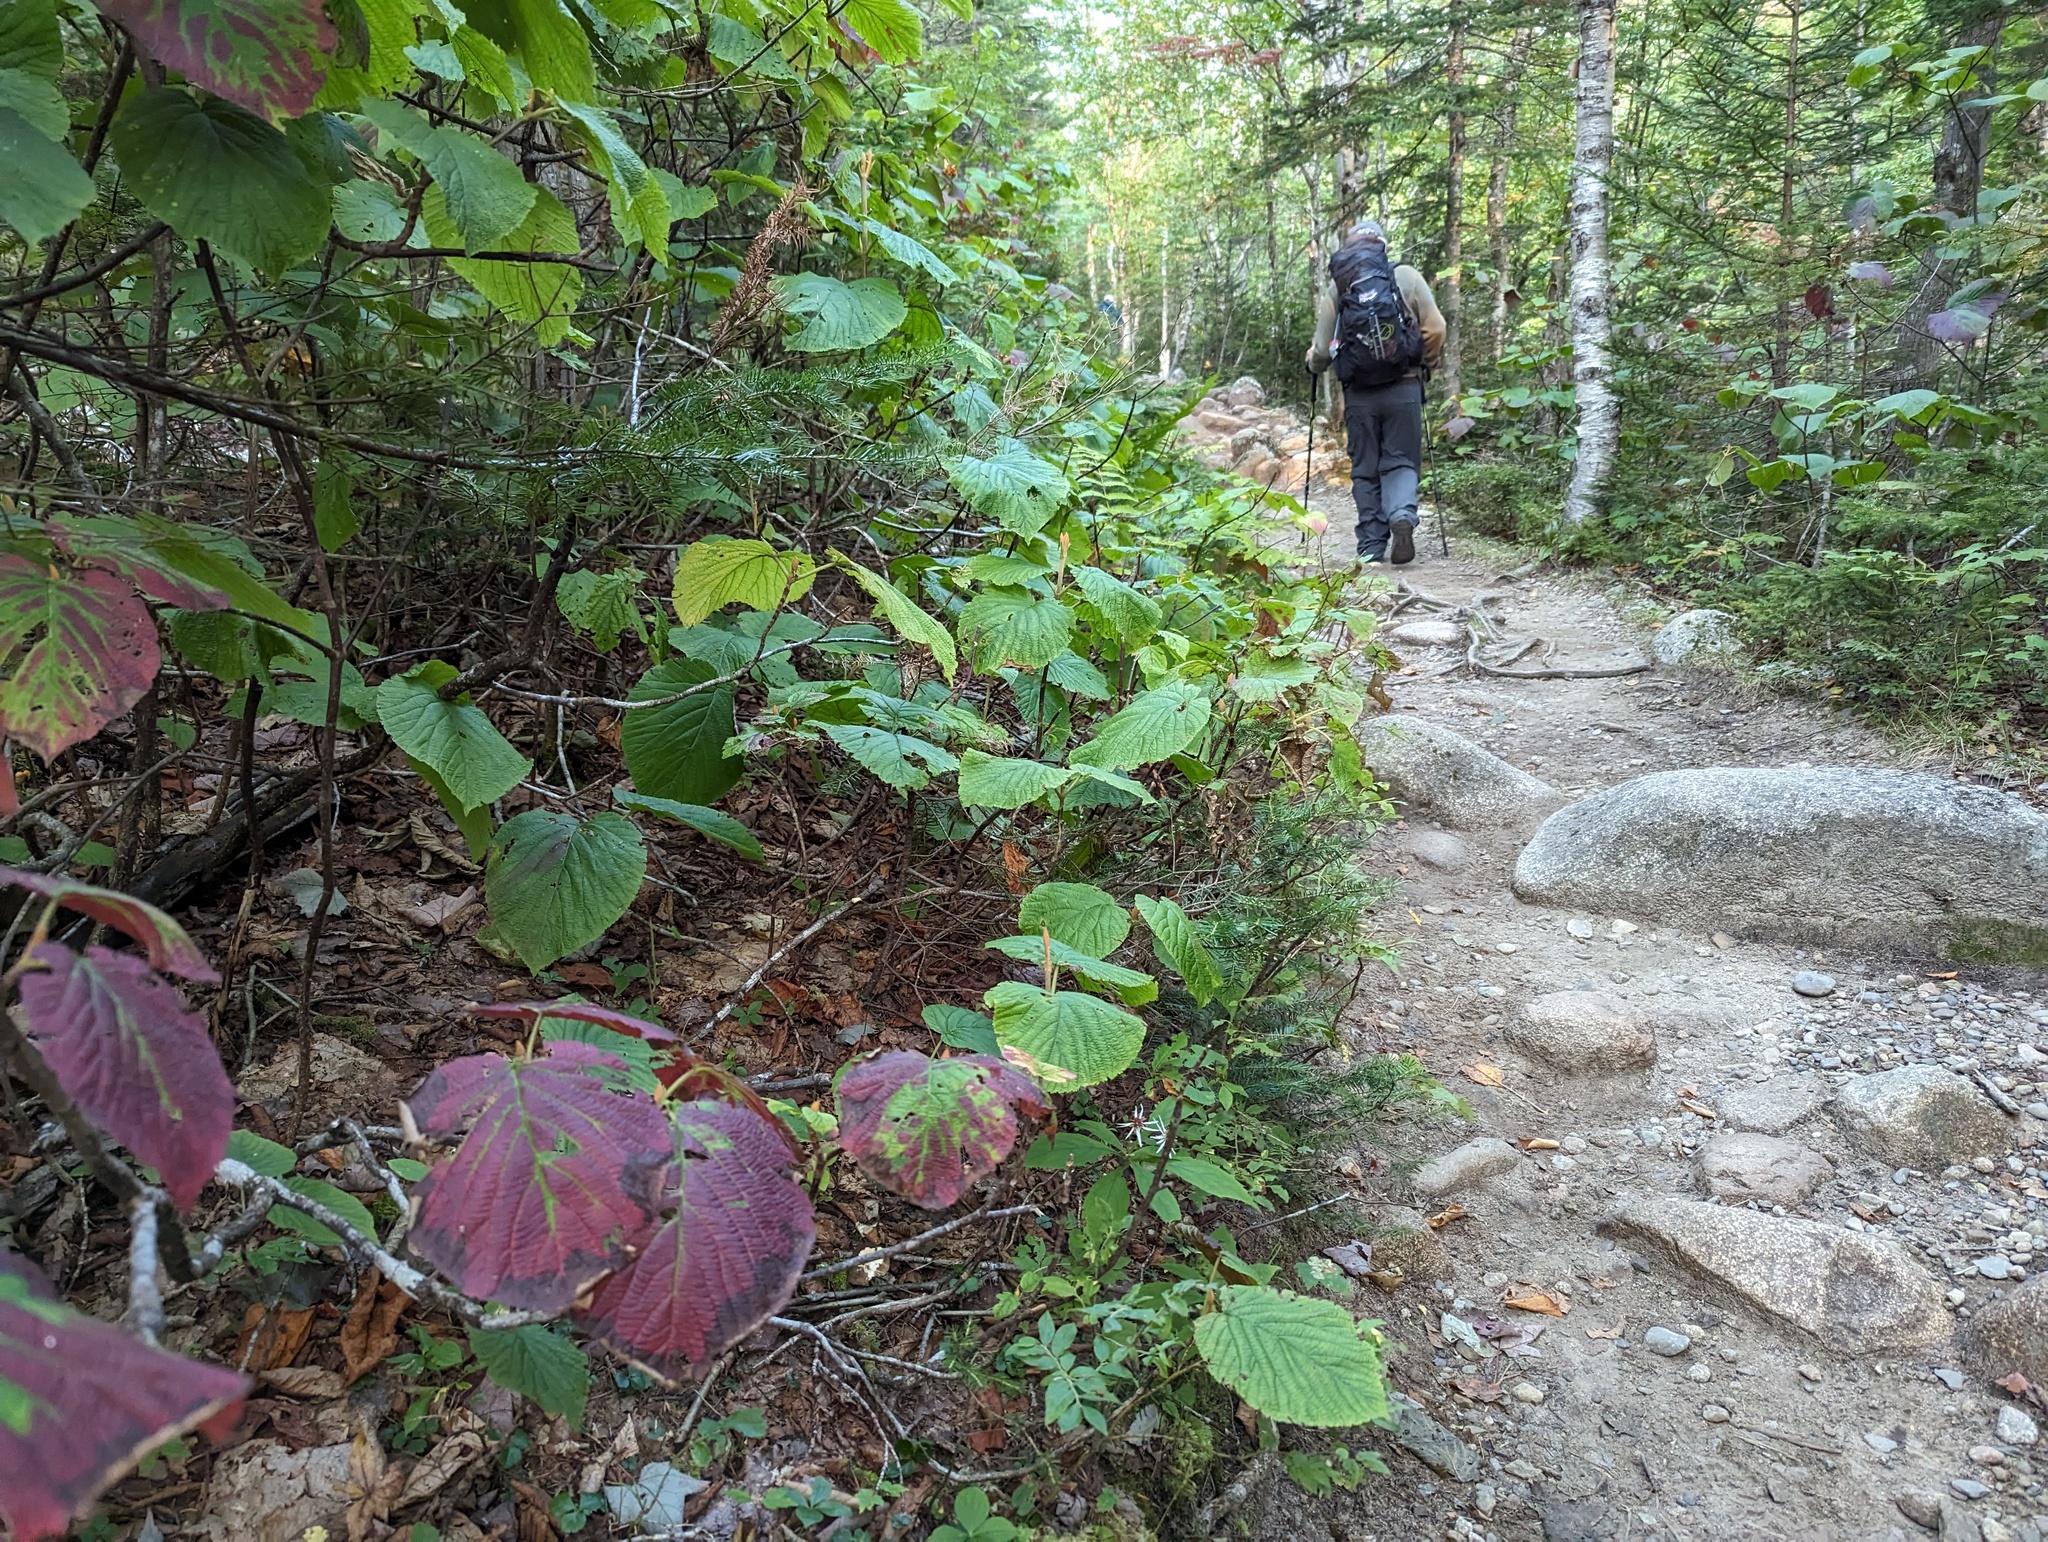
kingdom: Plantae
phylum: Tracheophyta
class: Magnoliopsida
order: Dipsacales
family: Viburnaceae
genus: Viburnum
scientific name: Viburnum lantanoides
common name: Hobblebush
